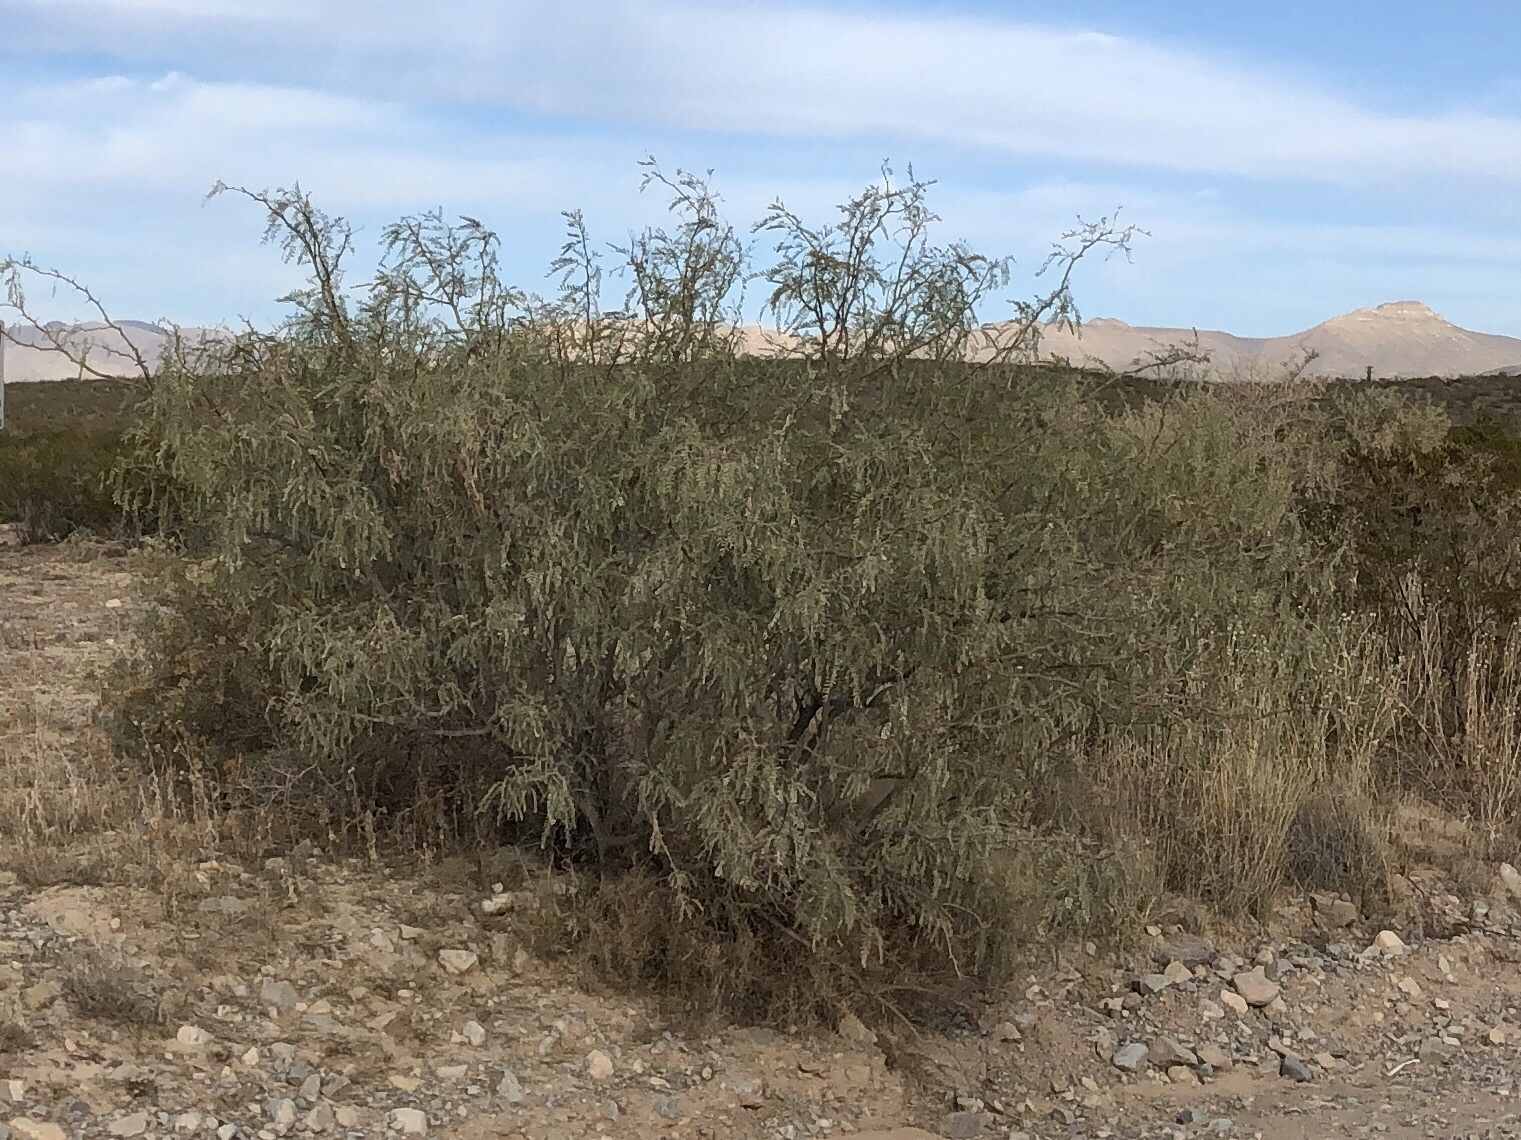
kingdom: Plantae
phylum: Tracheophyta
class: Magnoliopsida
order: Fabales
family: Fabaceae
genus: Prosopis
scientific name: Prosopis glandulosa
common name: Honey mesquite
